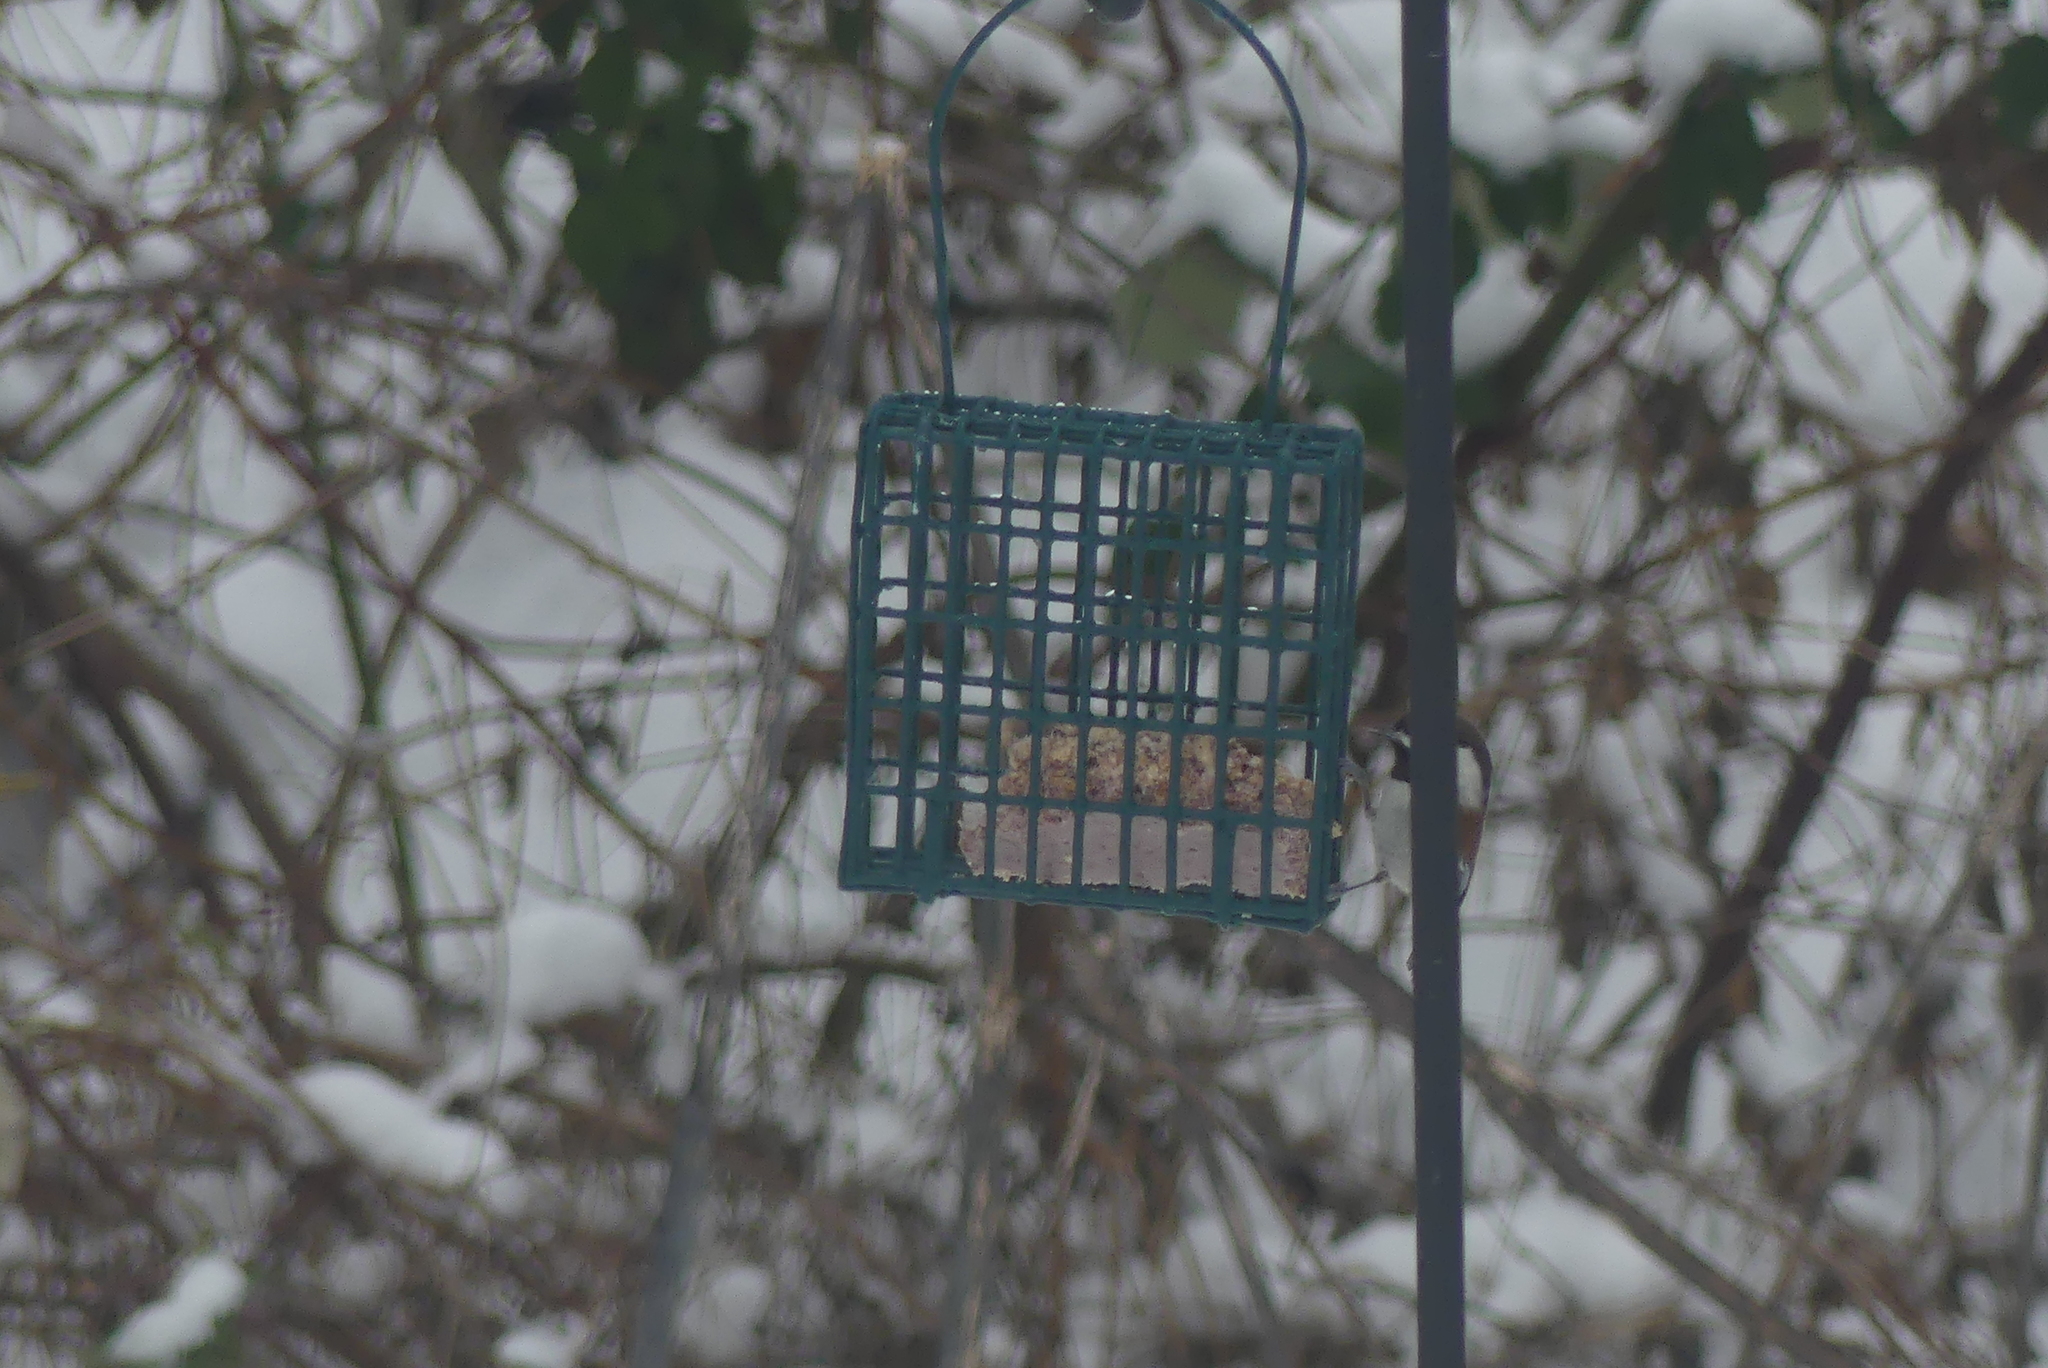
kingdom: Animalia
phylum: Chordata
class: Aves
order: Passeriformes
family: Paridae
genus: Poecile
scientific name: Poecile rufescens
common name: Chestnut-backed chickadee
